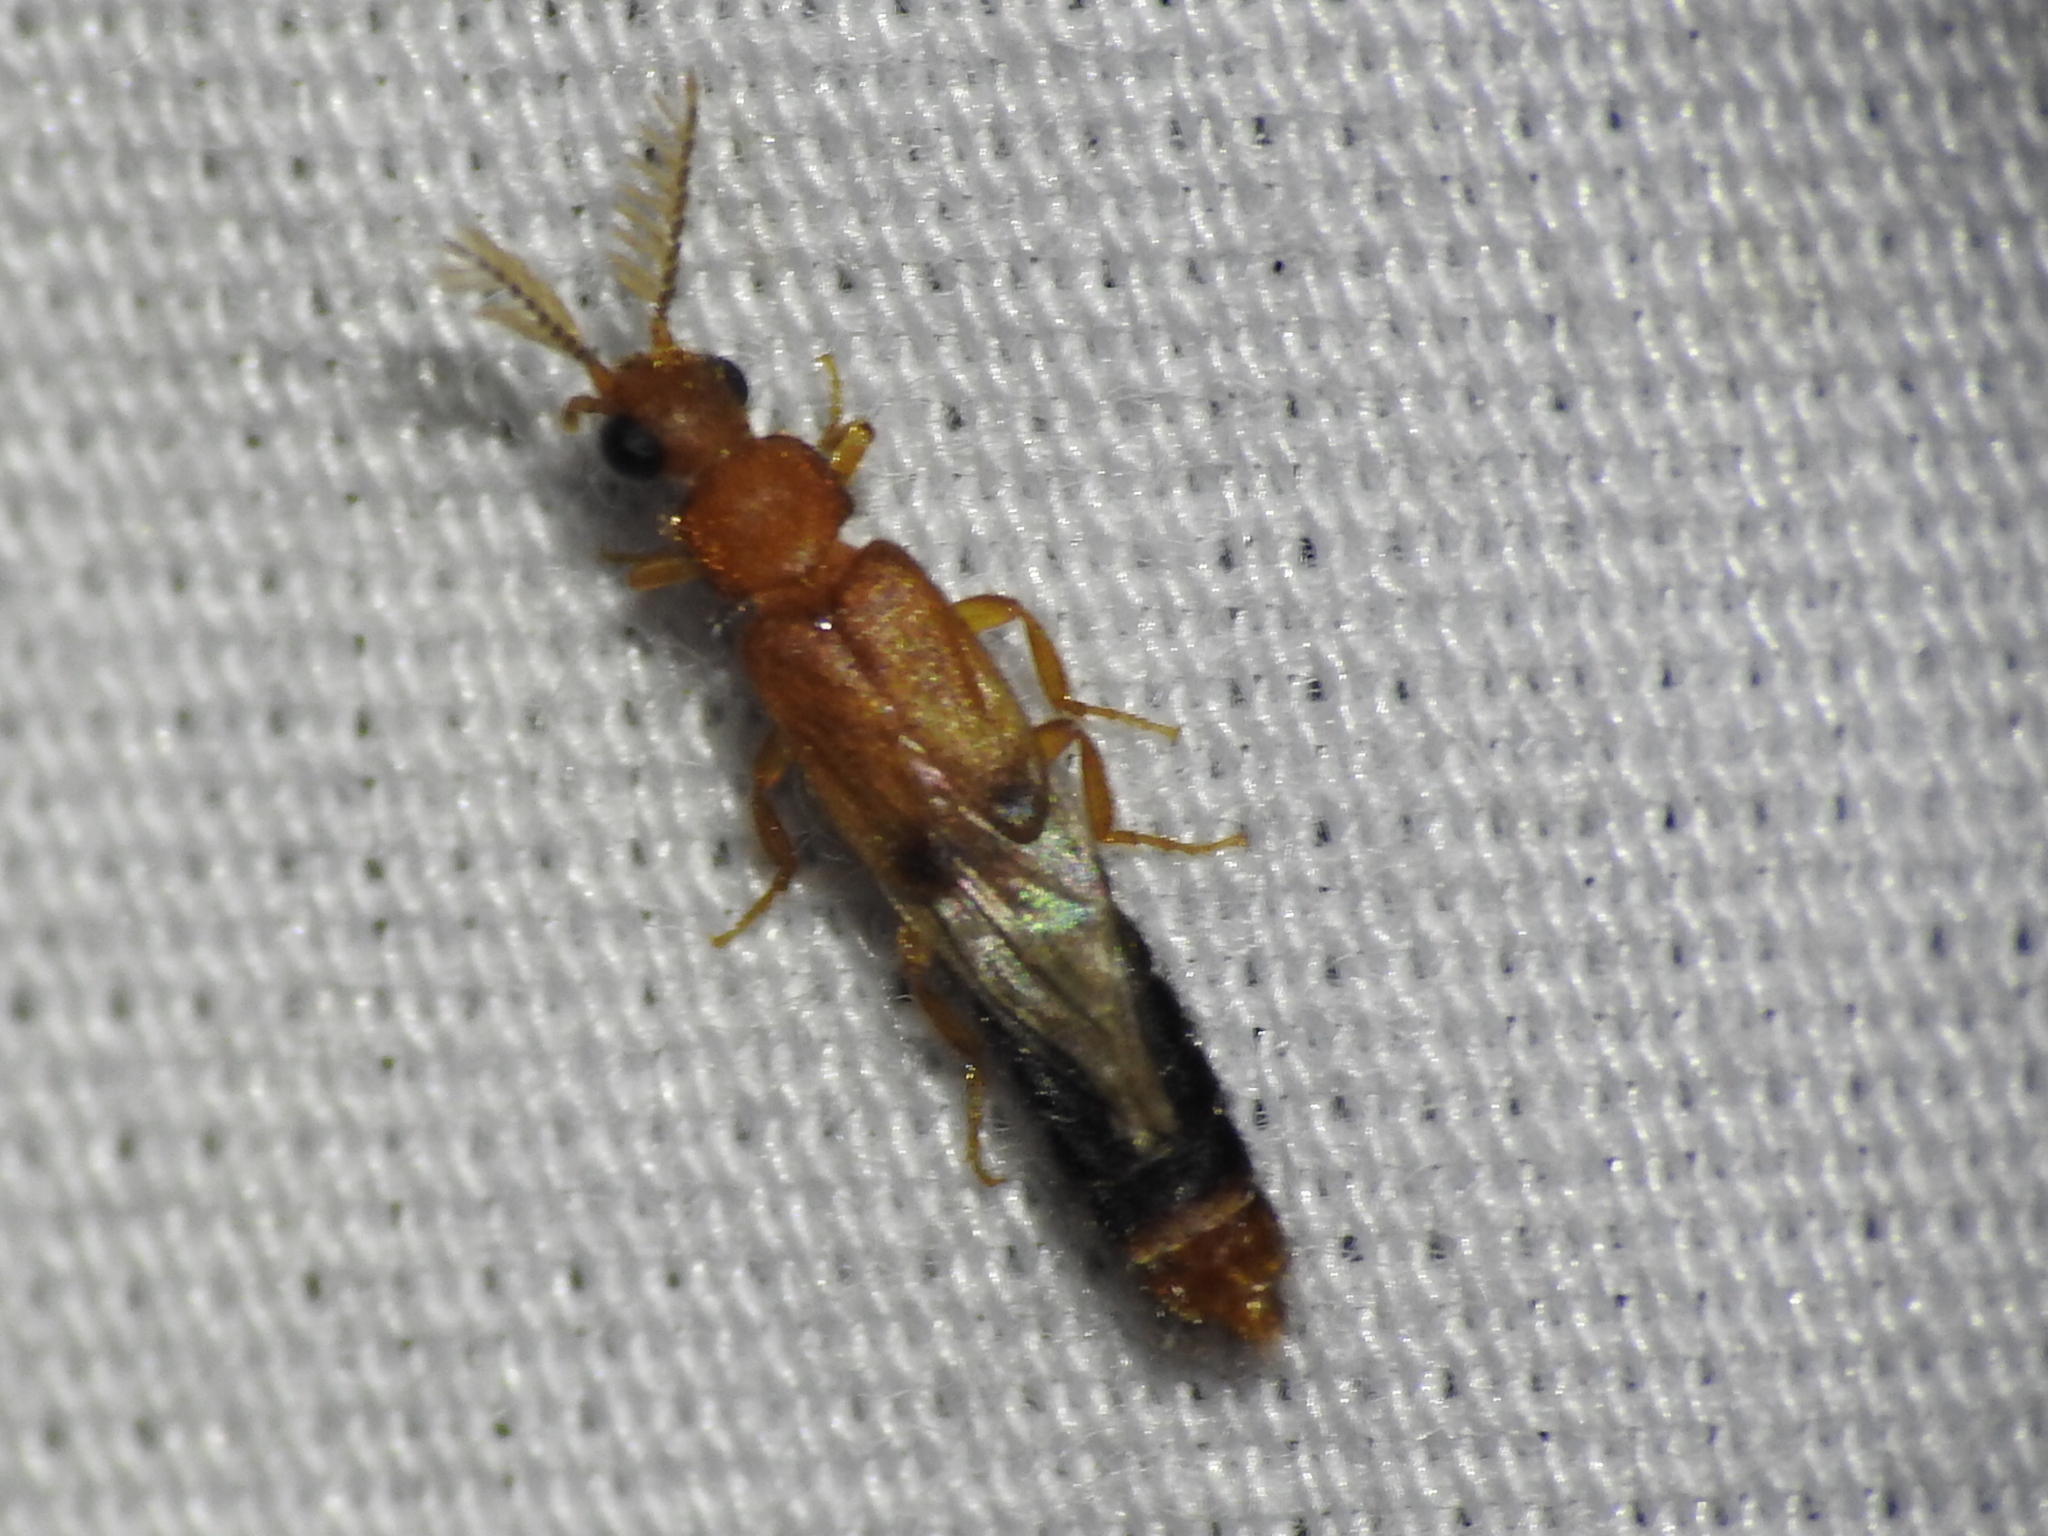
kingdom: Animalia
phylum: Arthropoda
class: Insecta
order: Coleoptera
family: Phengodidae
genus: Distremocephalus
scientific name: Distremocephalus texanus
